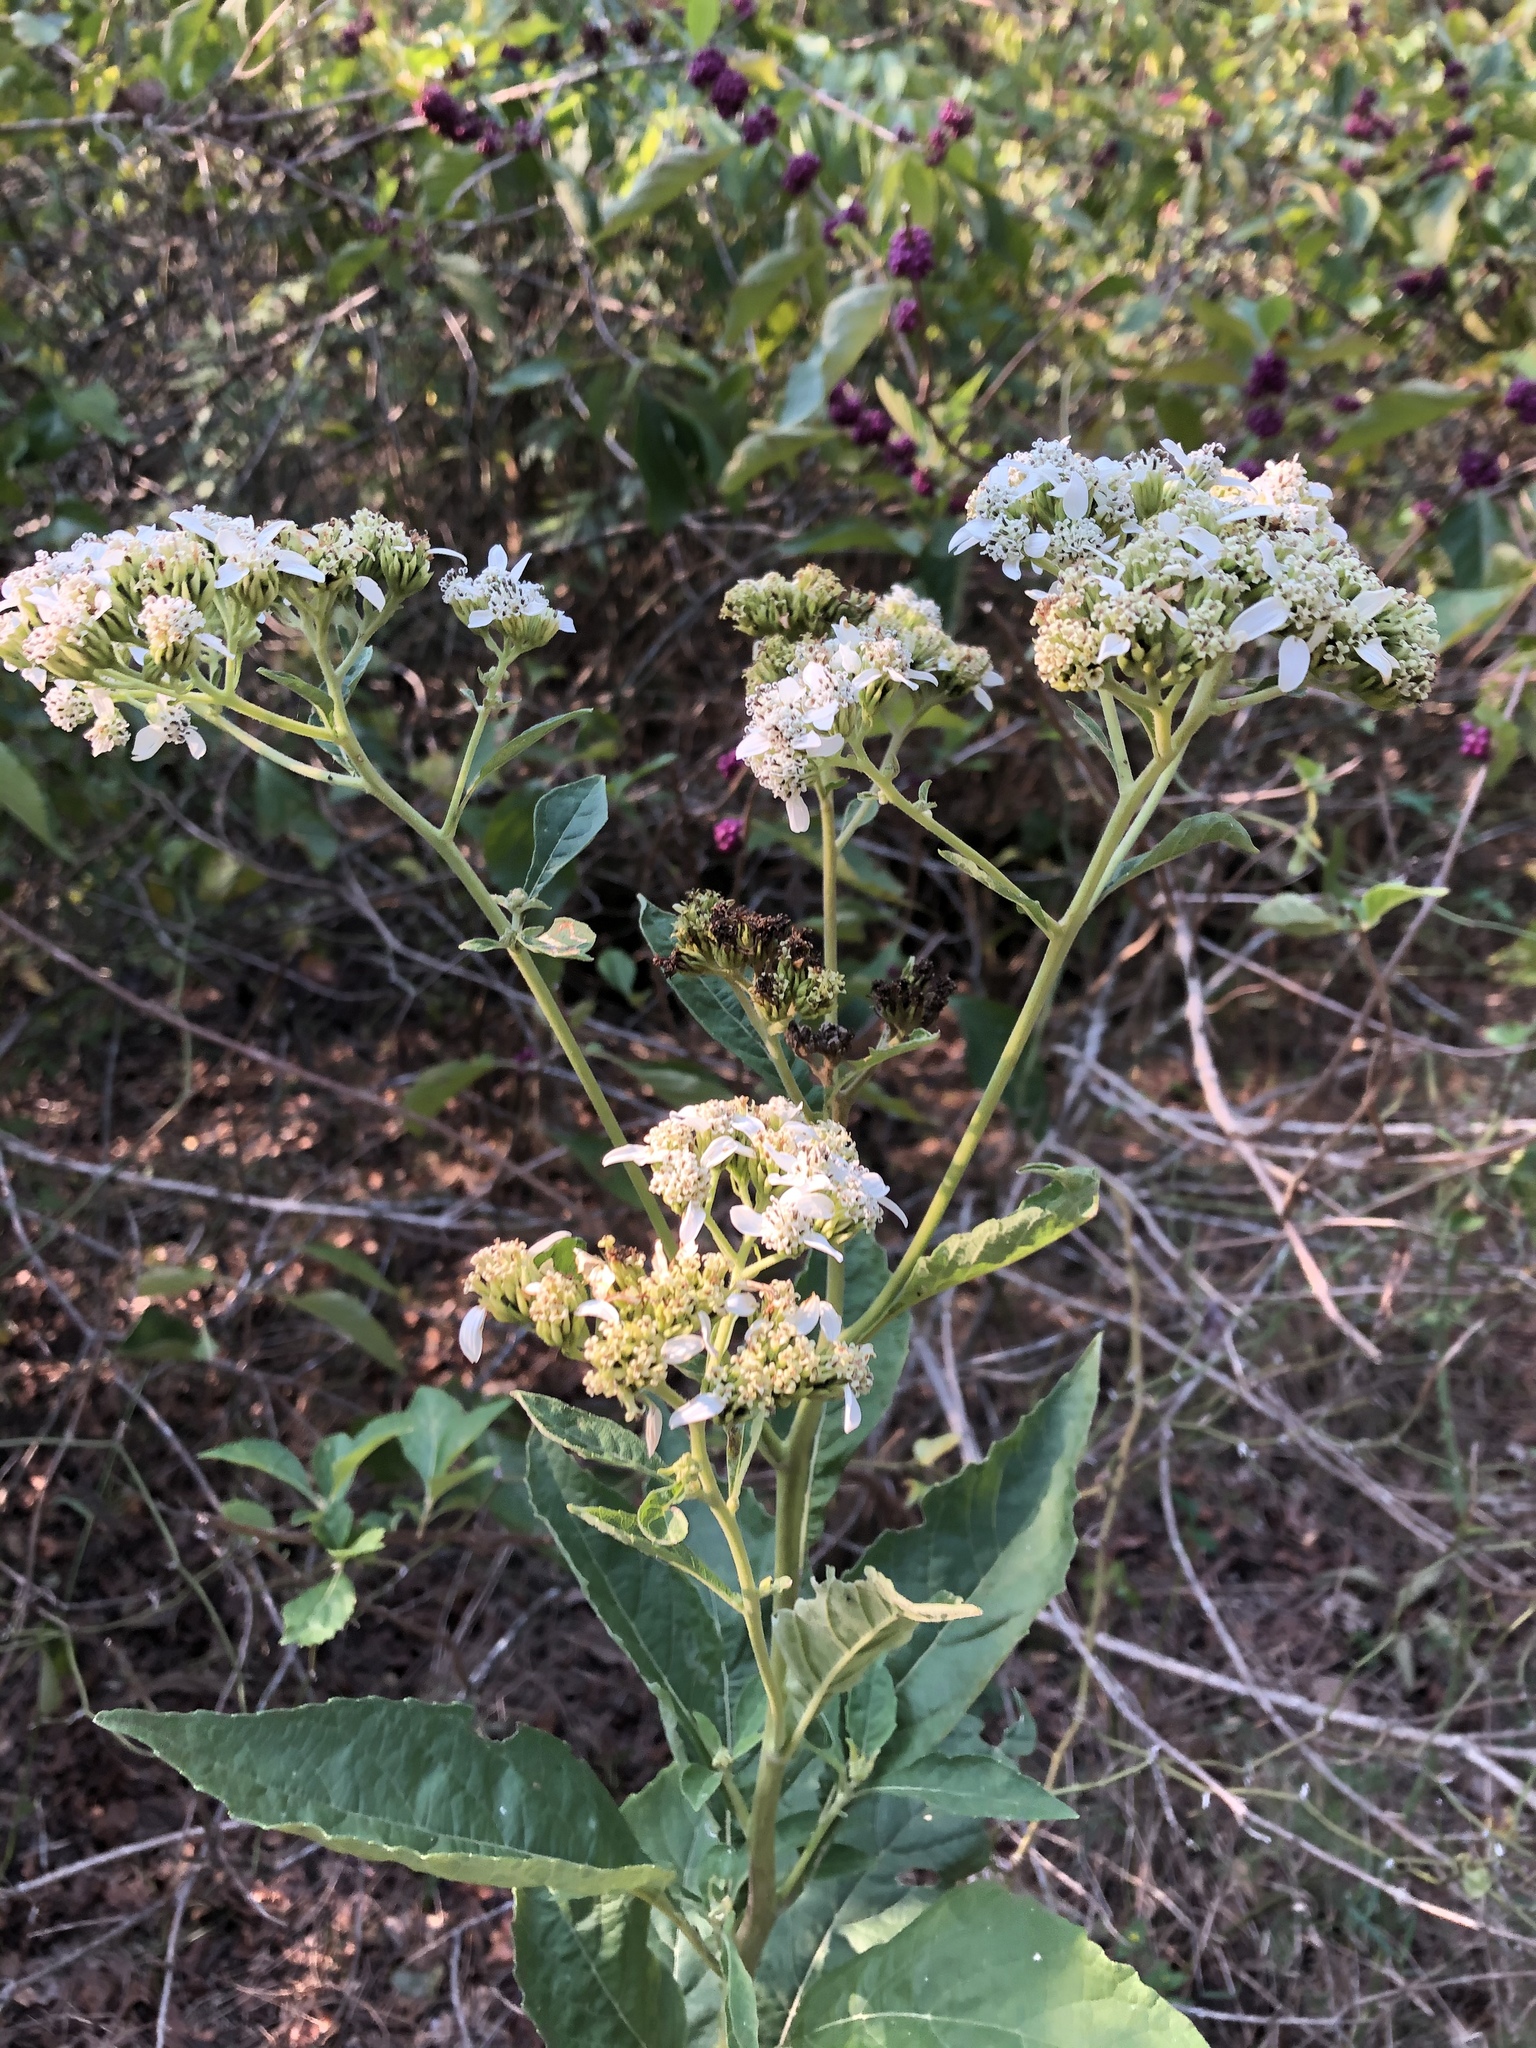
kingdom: Plantae
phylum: Tracheophyta
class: Magnoliopsida
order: Asterales
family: Asteraceae
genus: Verbesina
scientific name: Verbesina virginica
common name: Frostweed
